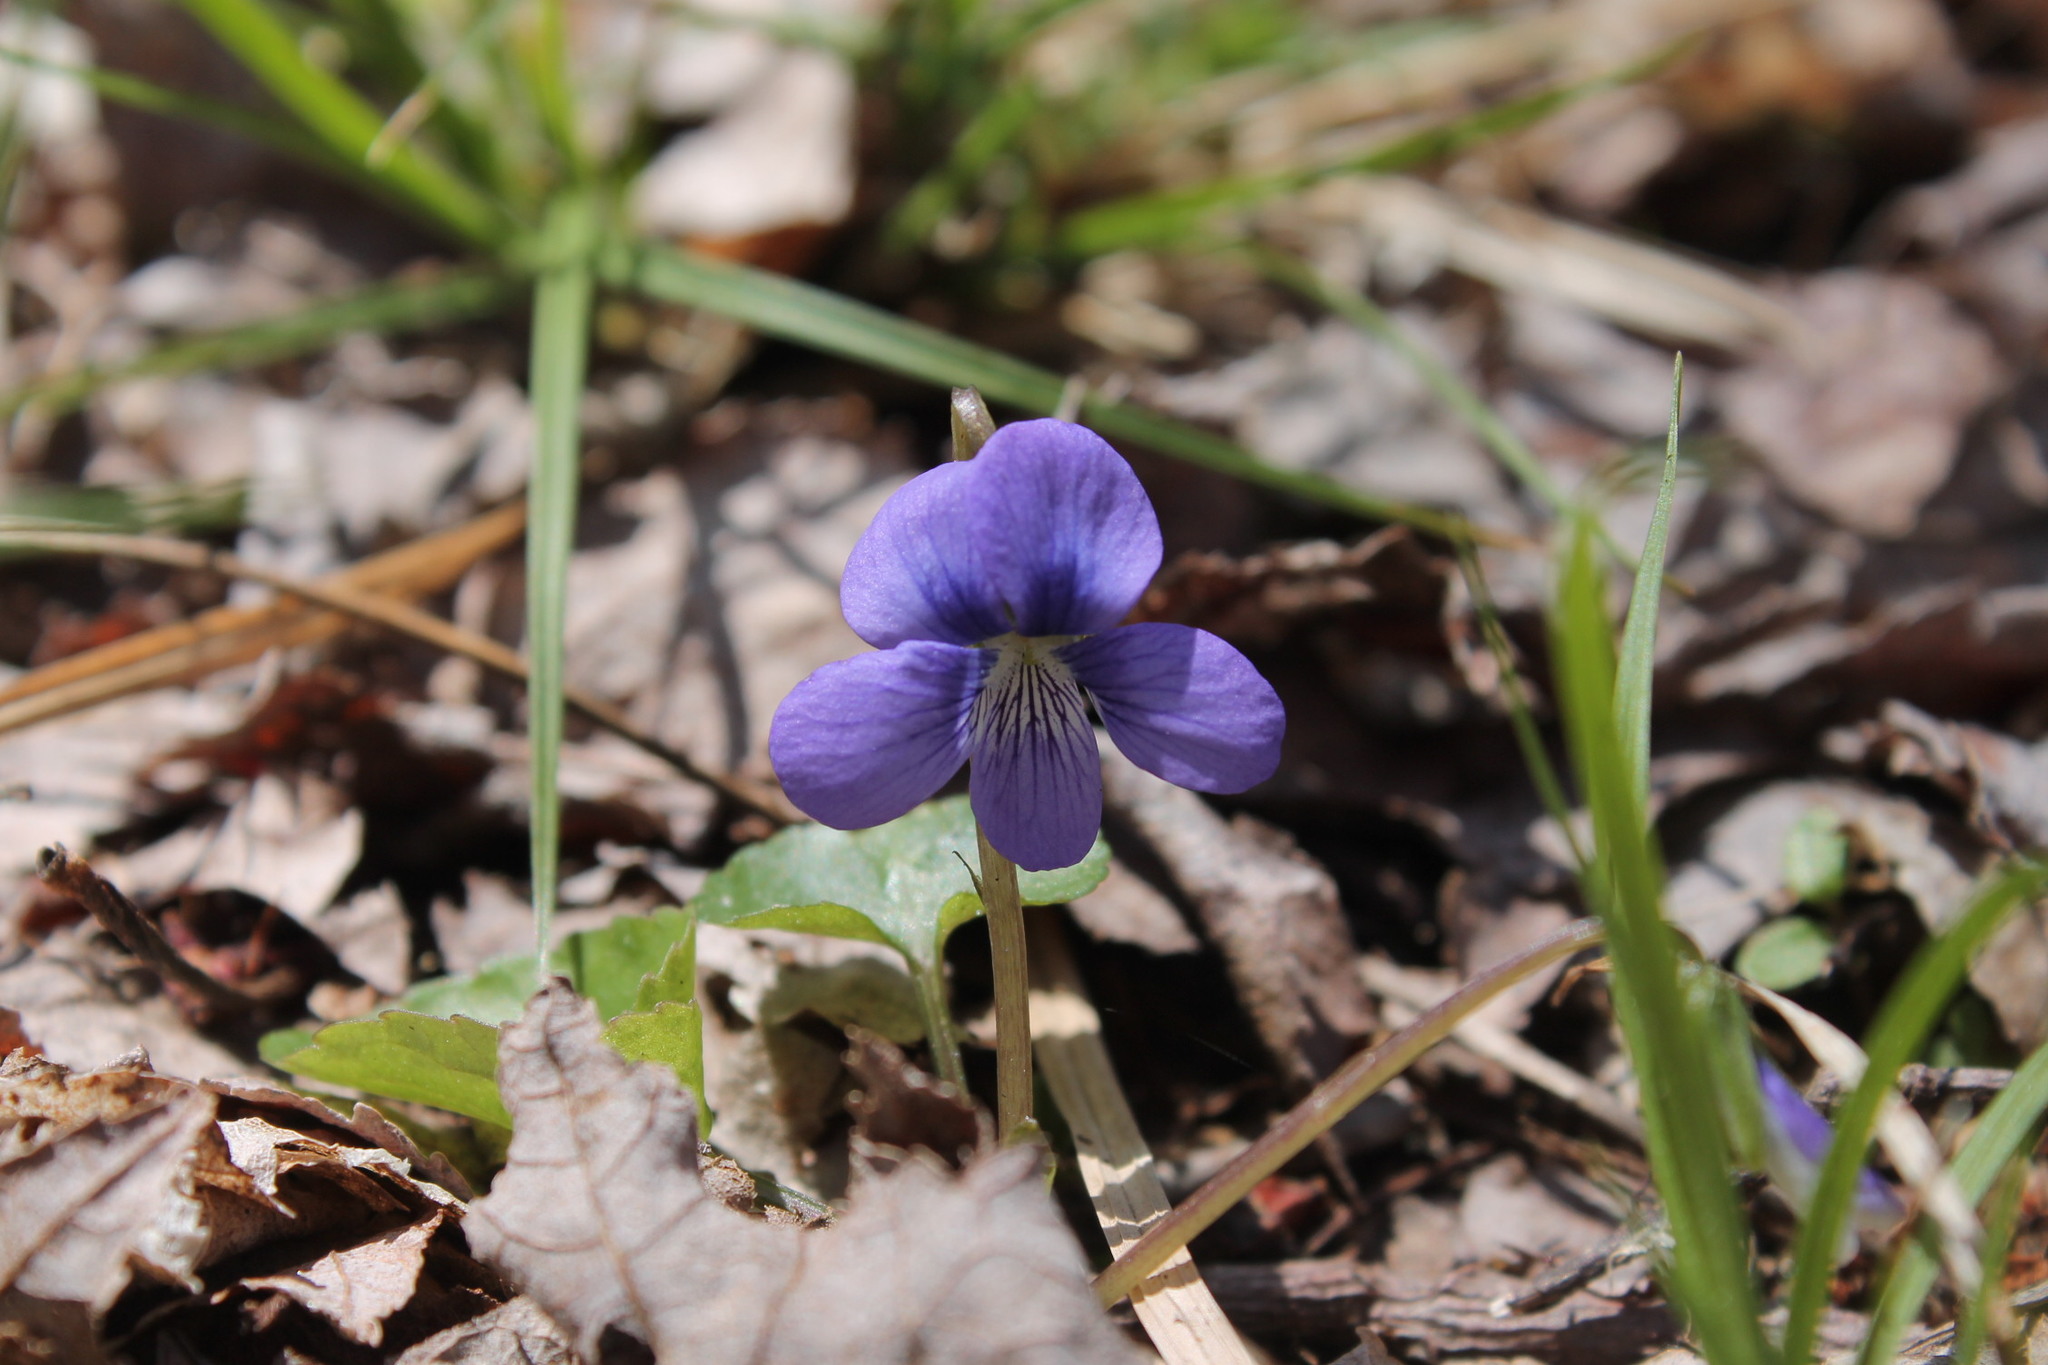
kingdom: Plantae
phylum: Tracheophyta
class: Magnoliopsida
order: Malpighiales
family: Violaceae
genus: Viola
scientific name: Viola sororia
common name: Dooryard violet
